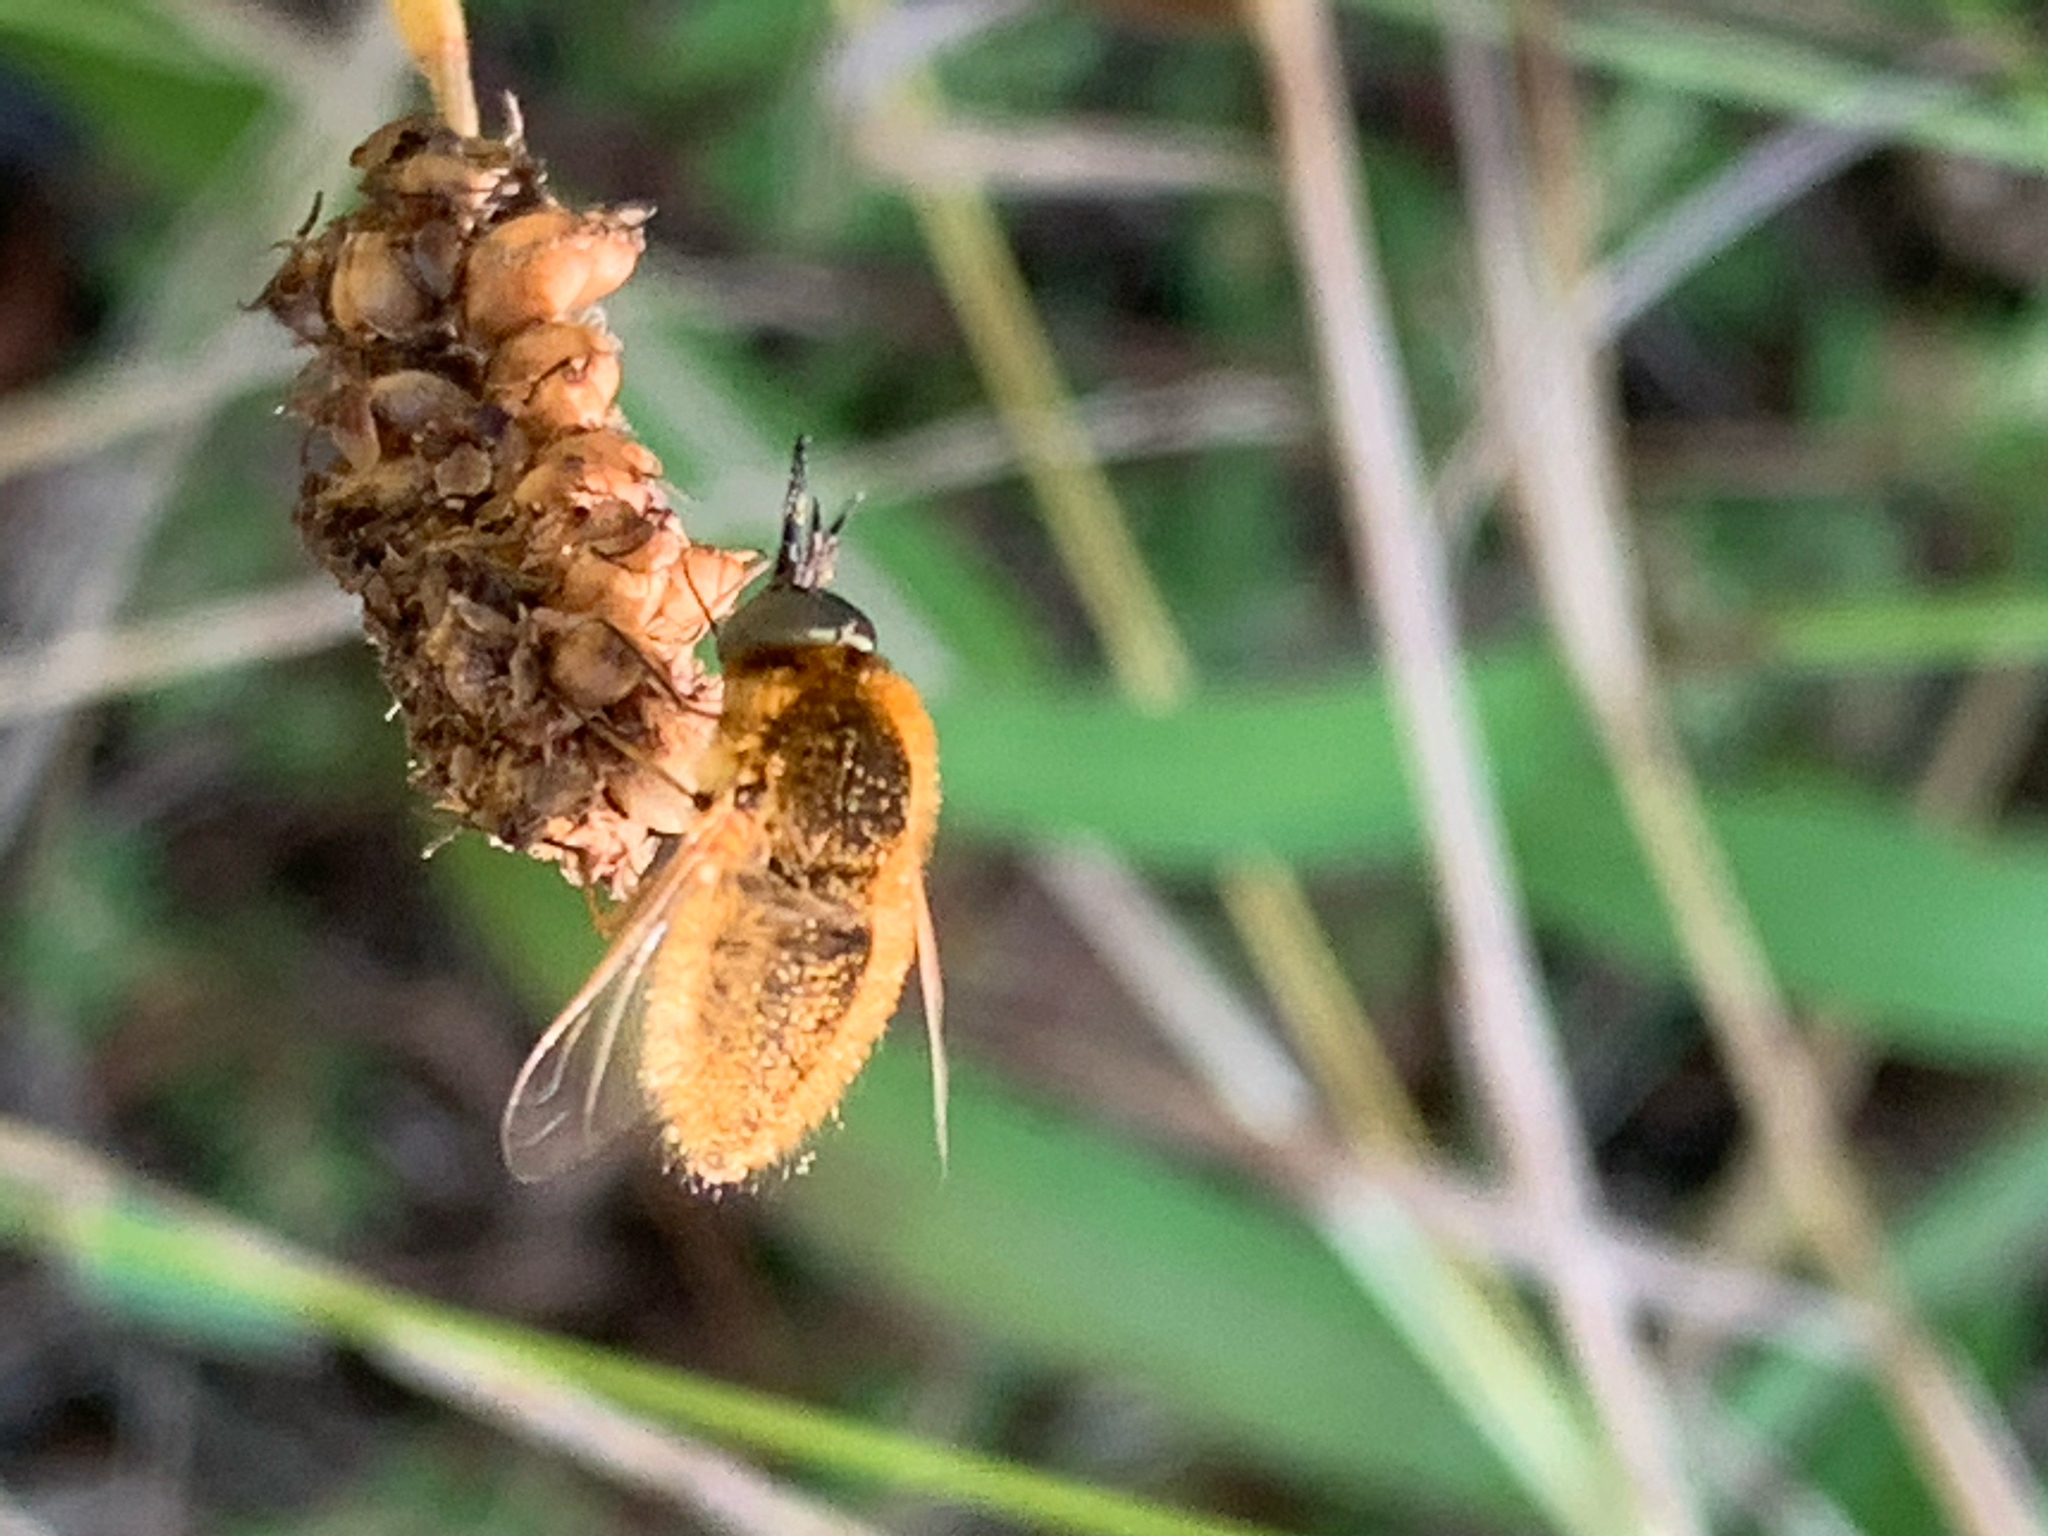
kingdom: Animalia
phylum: Arthropoda
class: Insecta
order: Diptera
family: Bombyliidae
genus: Sparnopolius
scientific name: Sparnopolius
